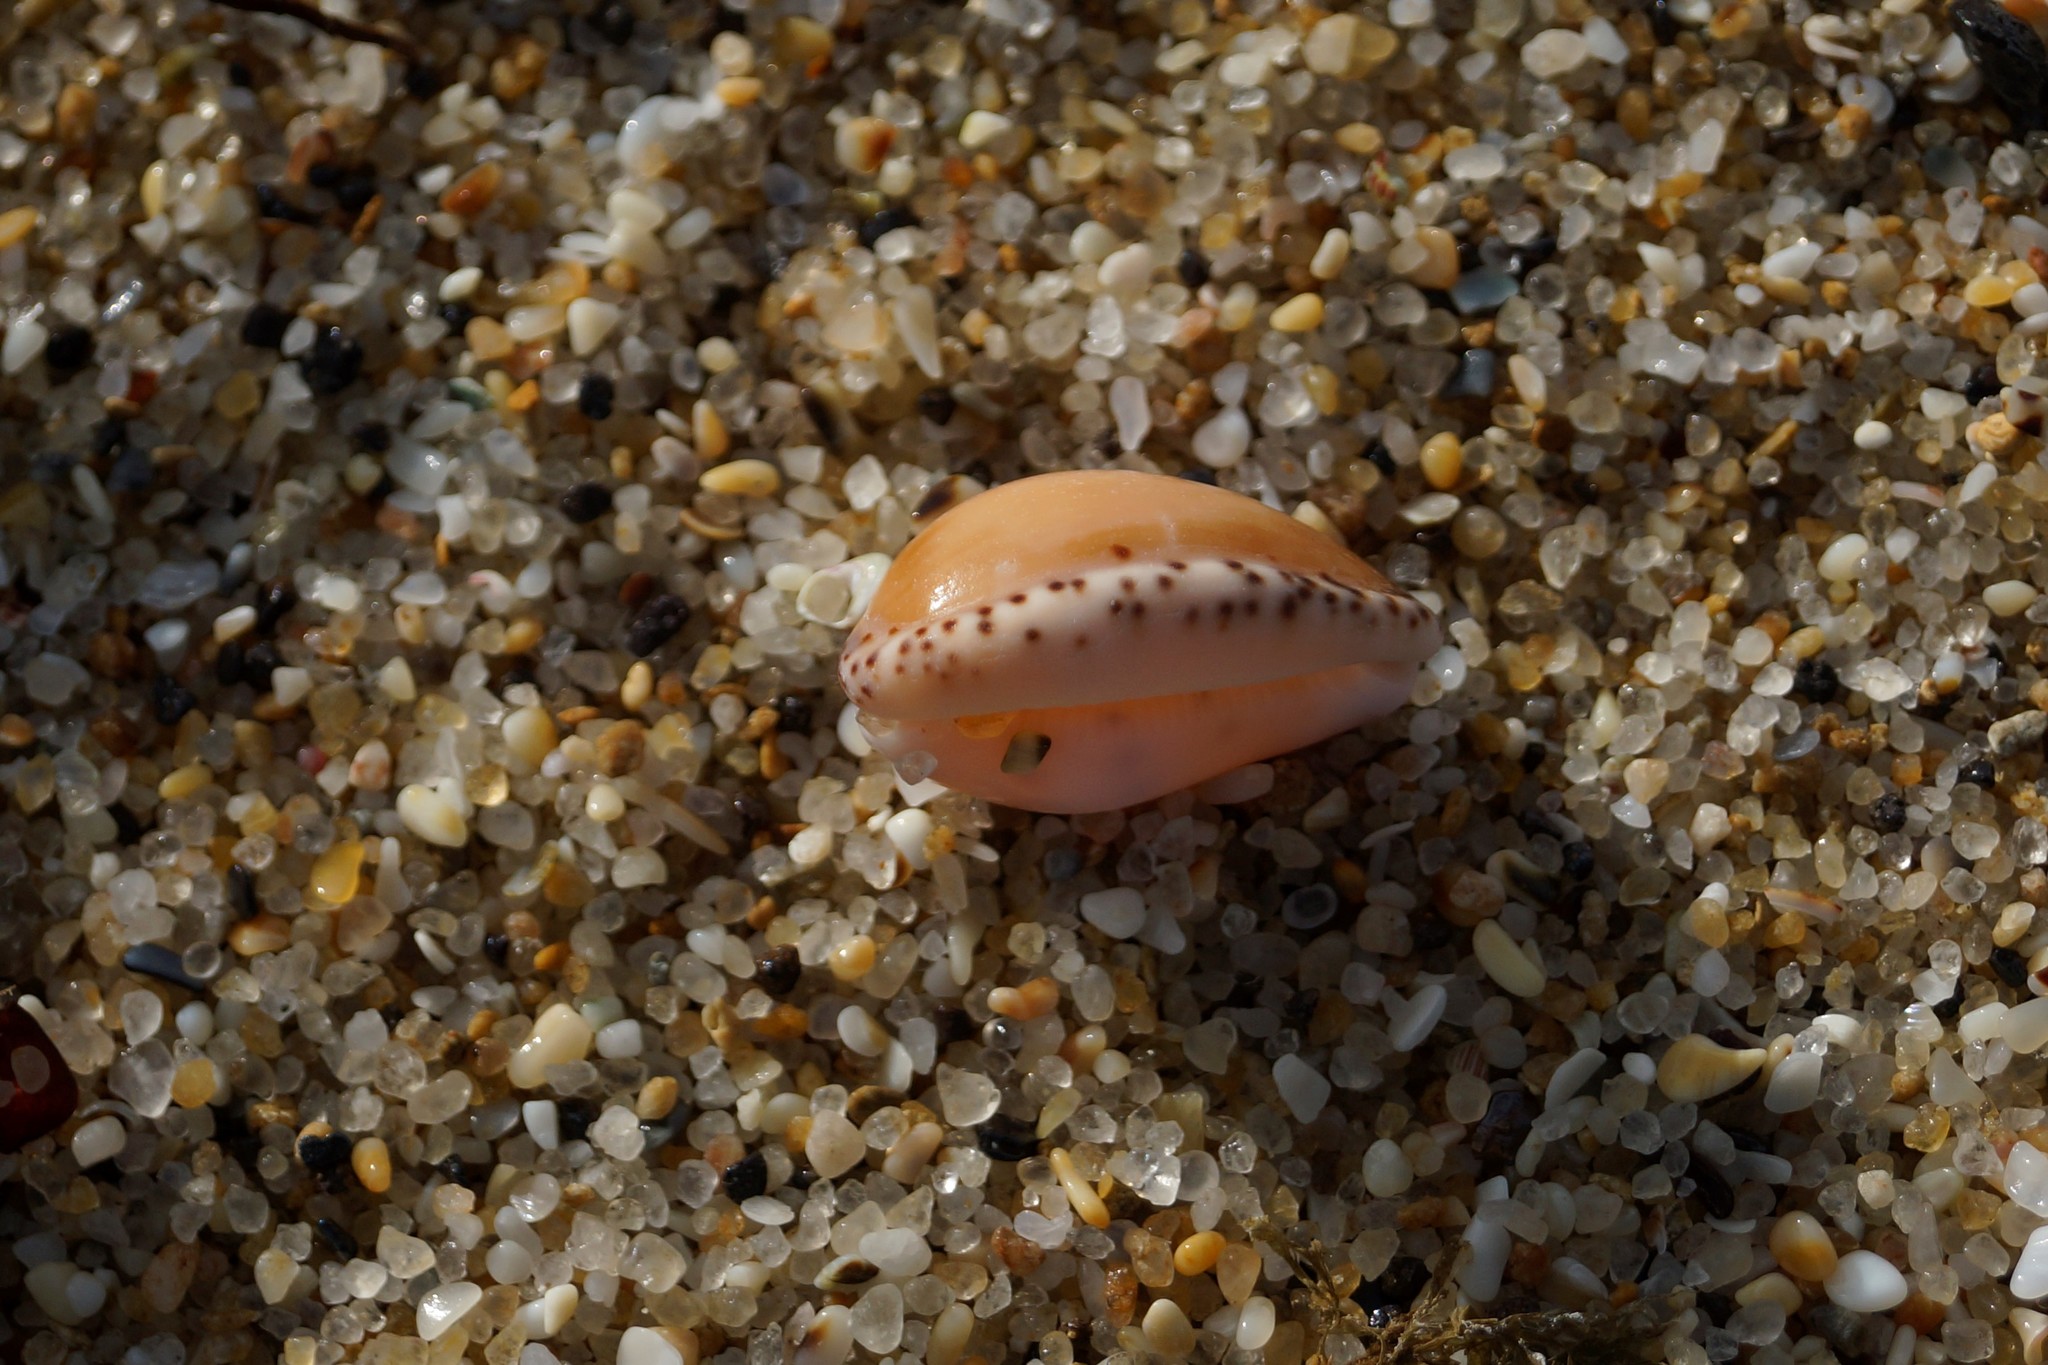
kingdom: Animalia
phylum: Mollusca
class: Gastropoda
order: Littorinimorpha
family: Cypraeidae
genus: Notocypraea
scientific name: Notocypraea angustata
